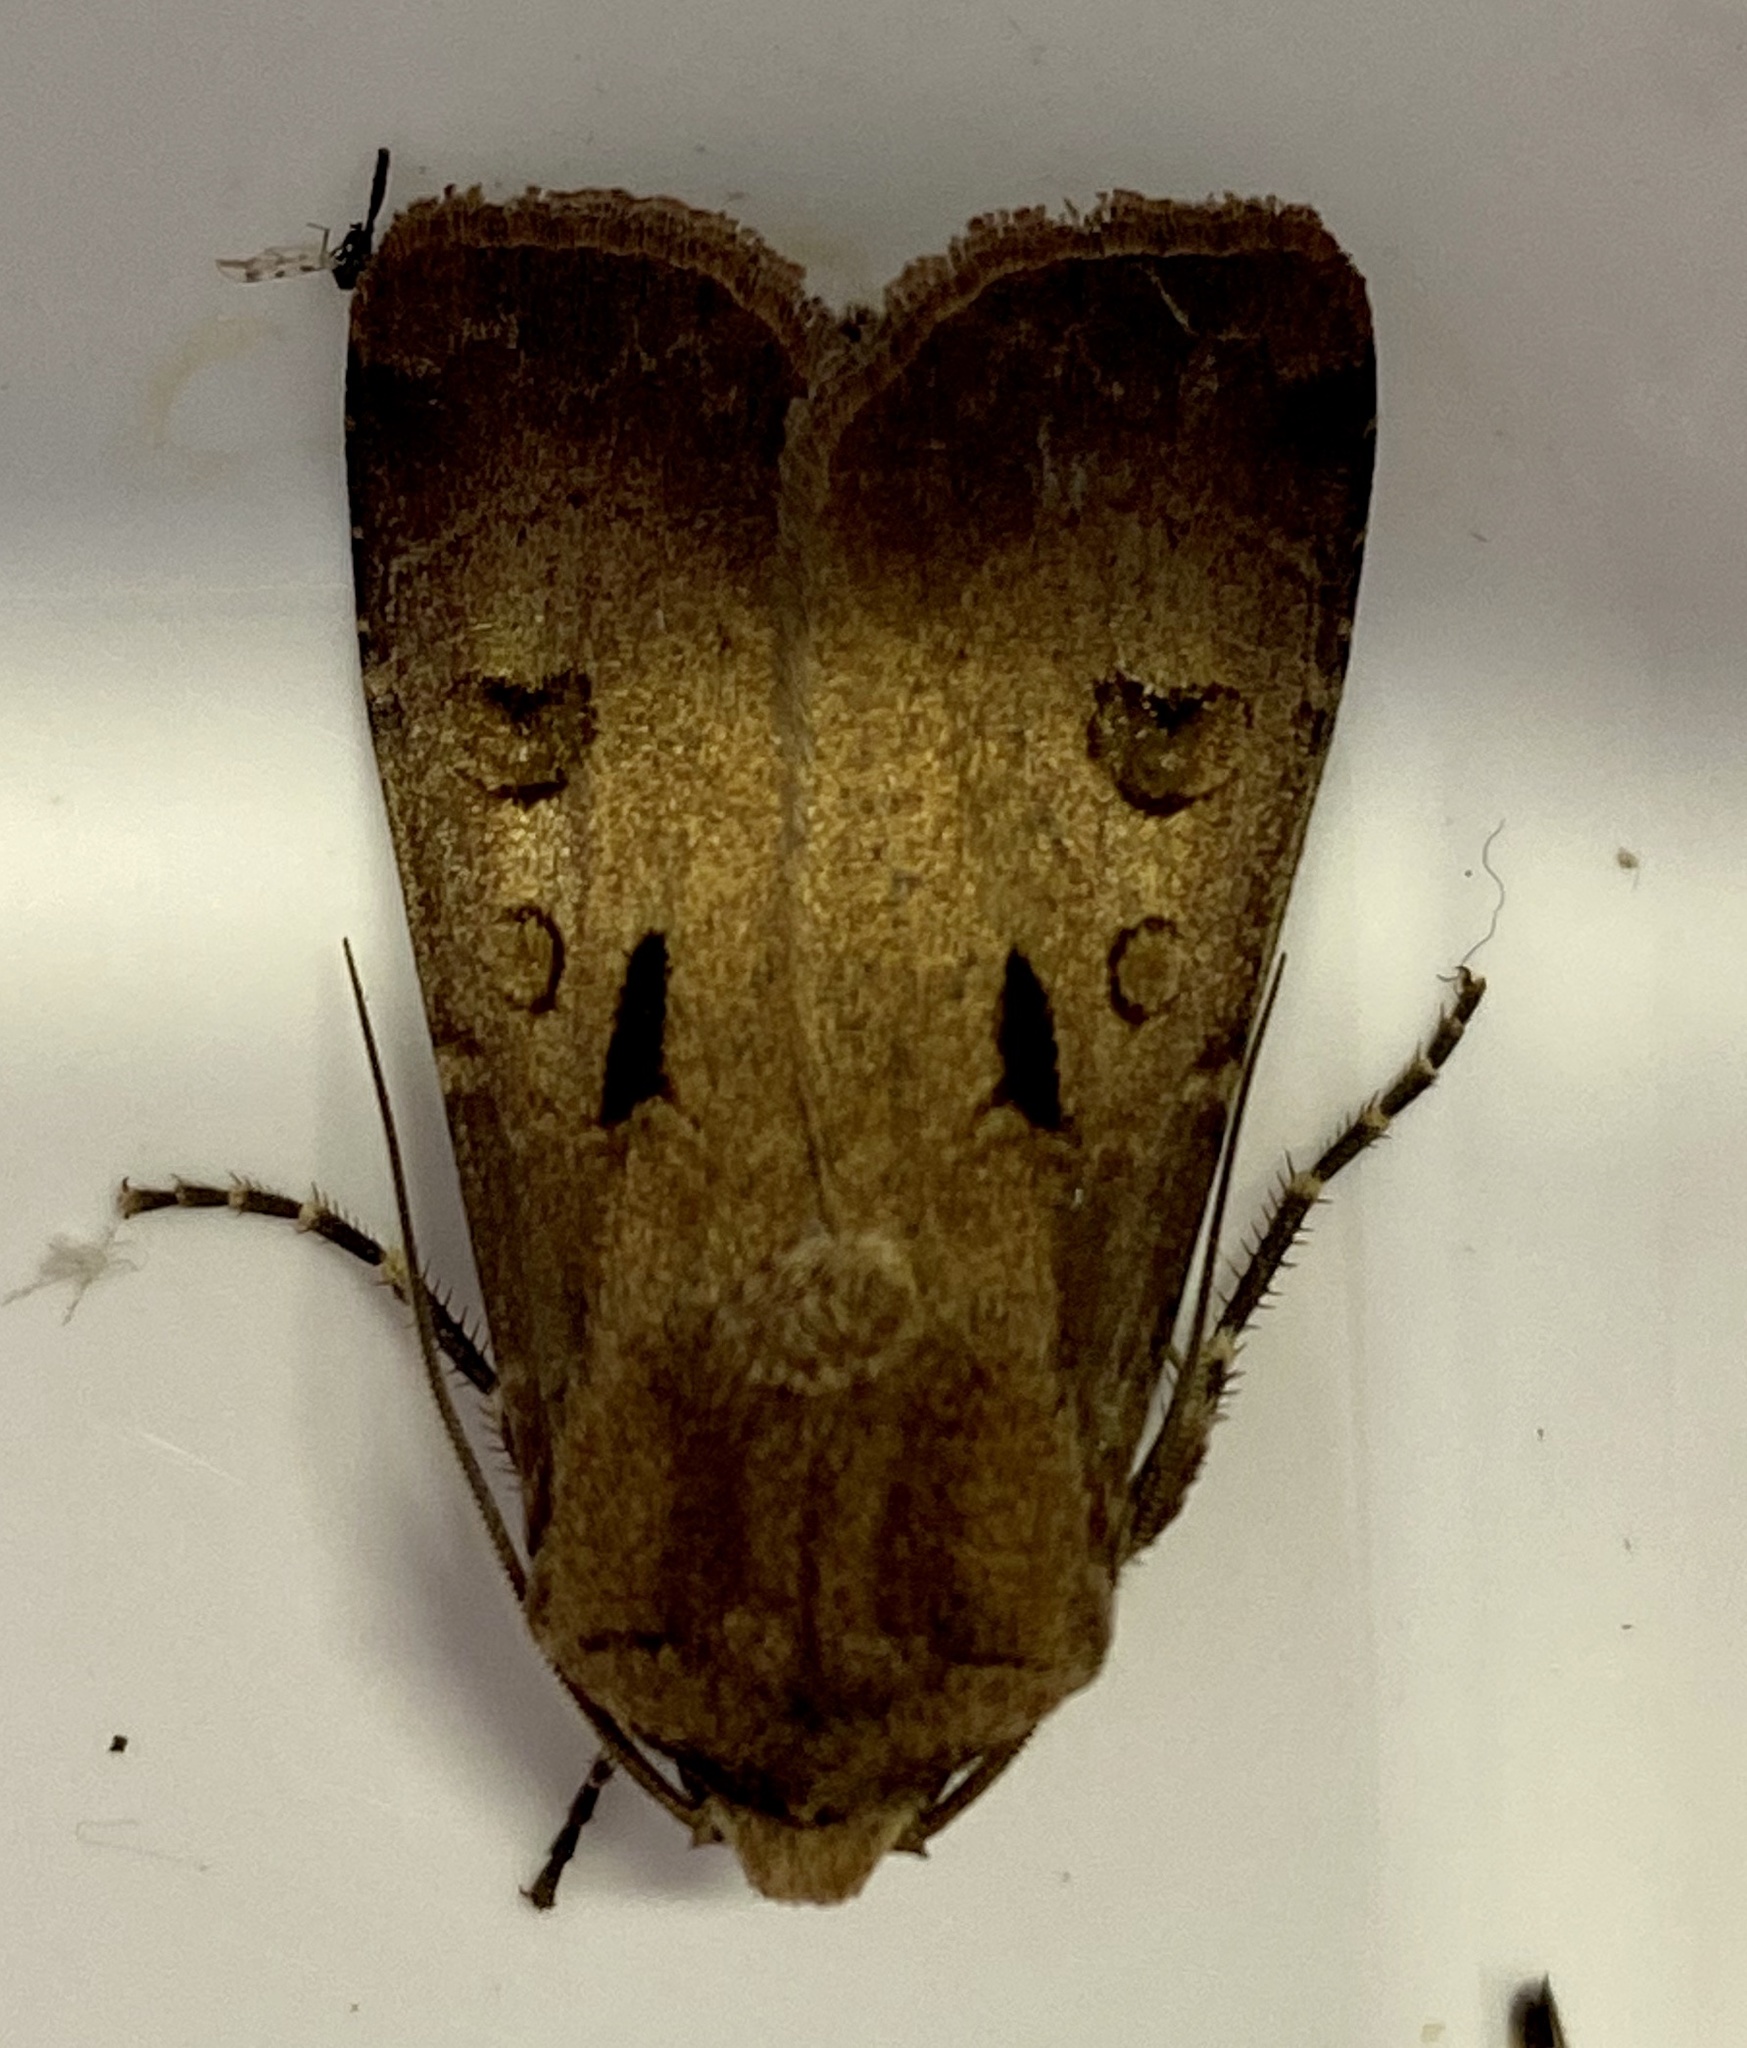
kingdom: Animalia
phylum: Arthropoda
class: Insecta
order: Lepidoptera
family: Noctuidae
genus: Agrotis
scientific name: Agrotis exclamationis
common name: Heart and dart
